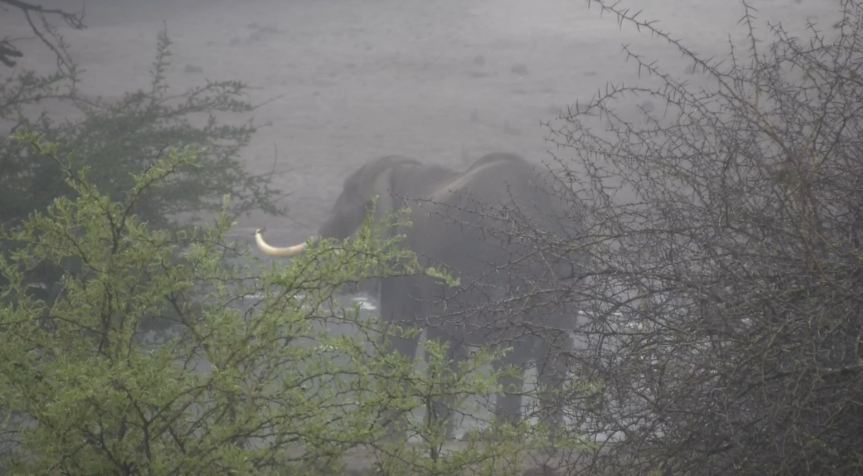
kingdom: Animalia
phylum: Chordata
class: Mammalia
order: Proboscidea
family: Elephantidae
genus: Loxodonta
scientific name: Loxodonta africana
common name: African elephant
